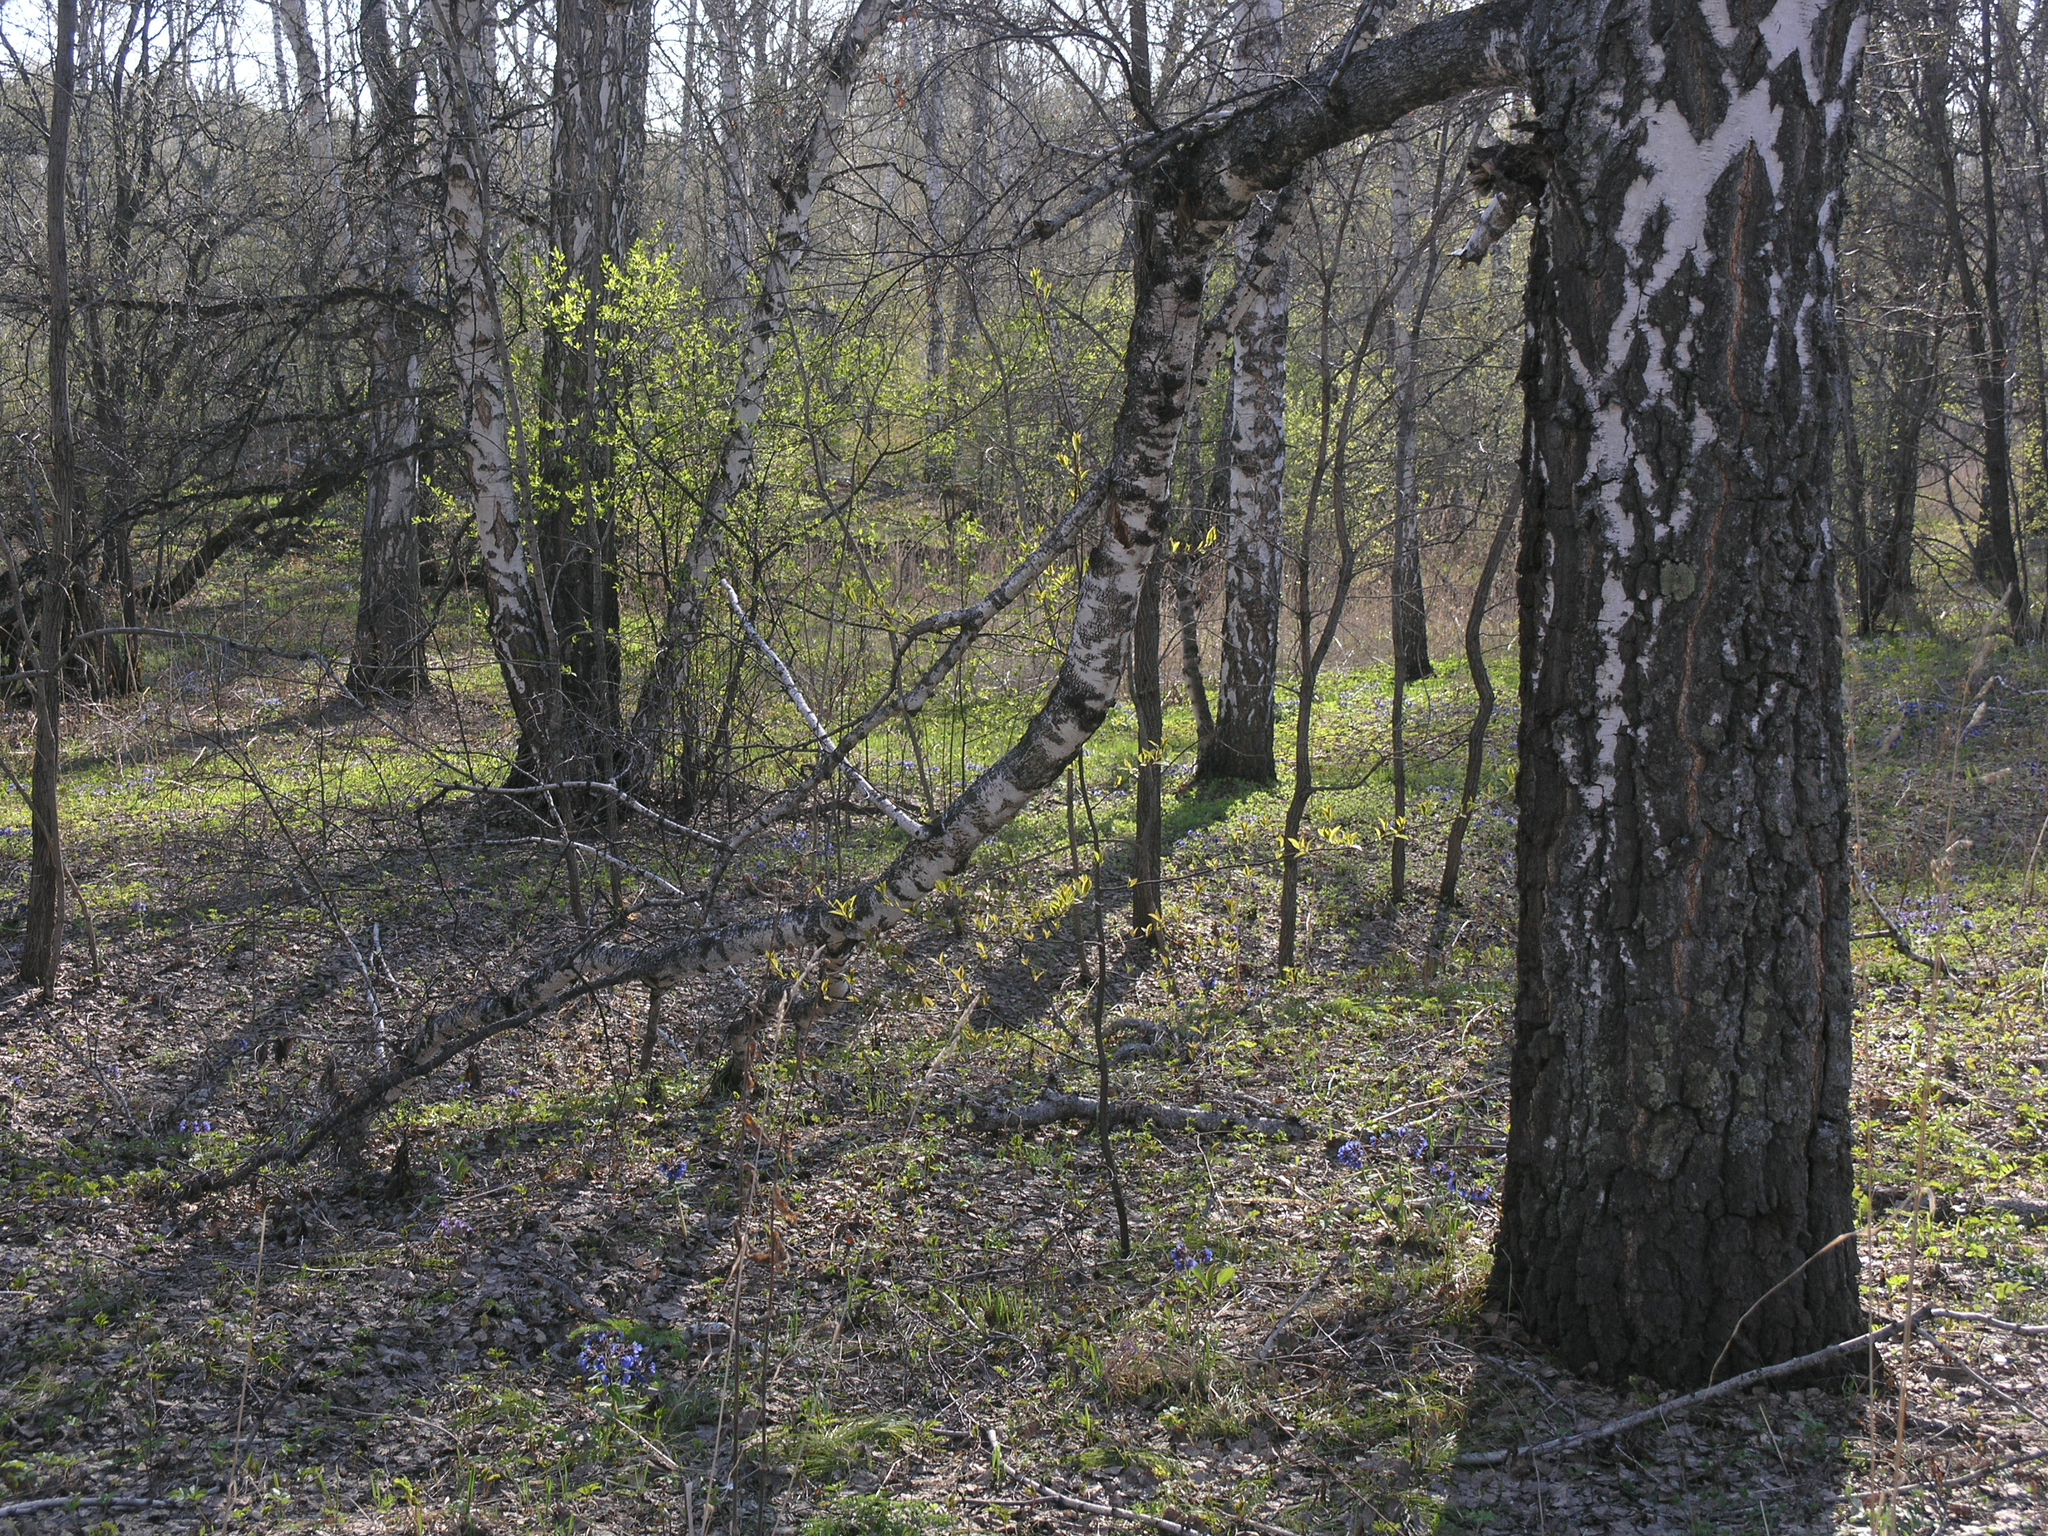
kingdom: Plantae
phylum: Tracheophyta
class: Magnoliopsida
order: Fagales
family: Betulaceae
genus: Betula
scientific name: Betula pendula
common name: Silver birch
